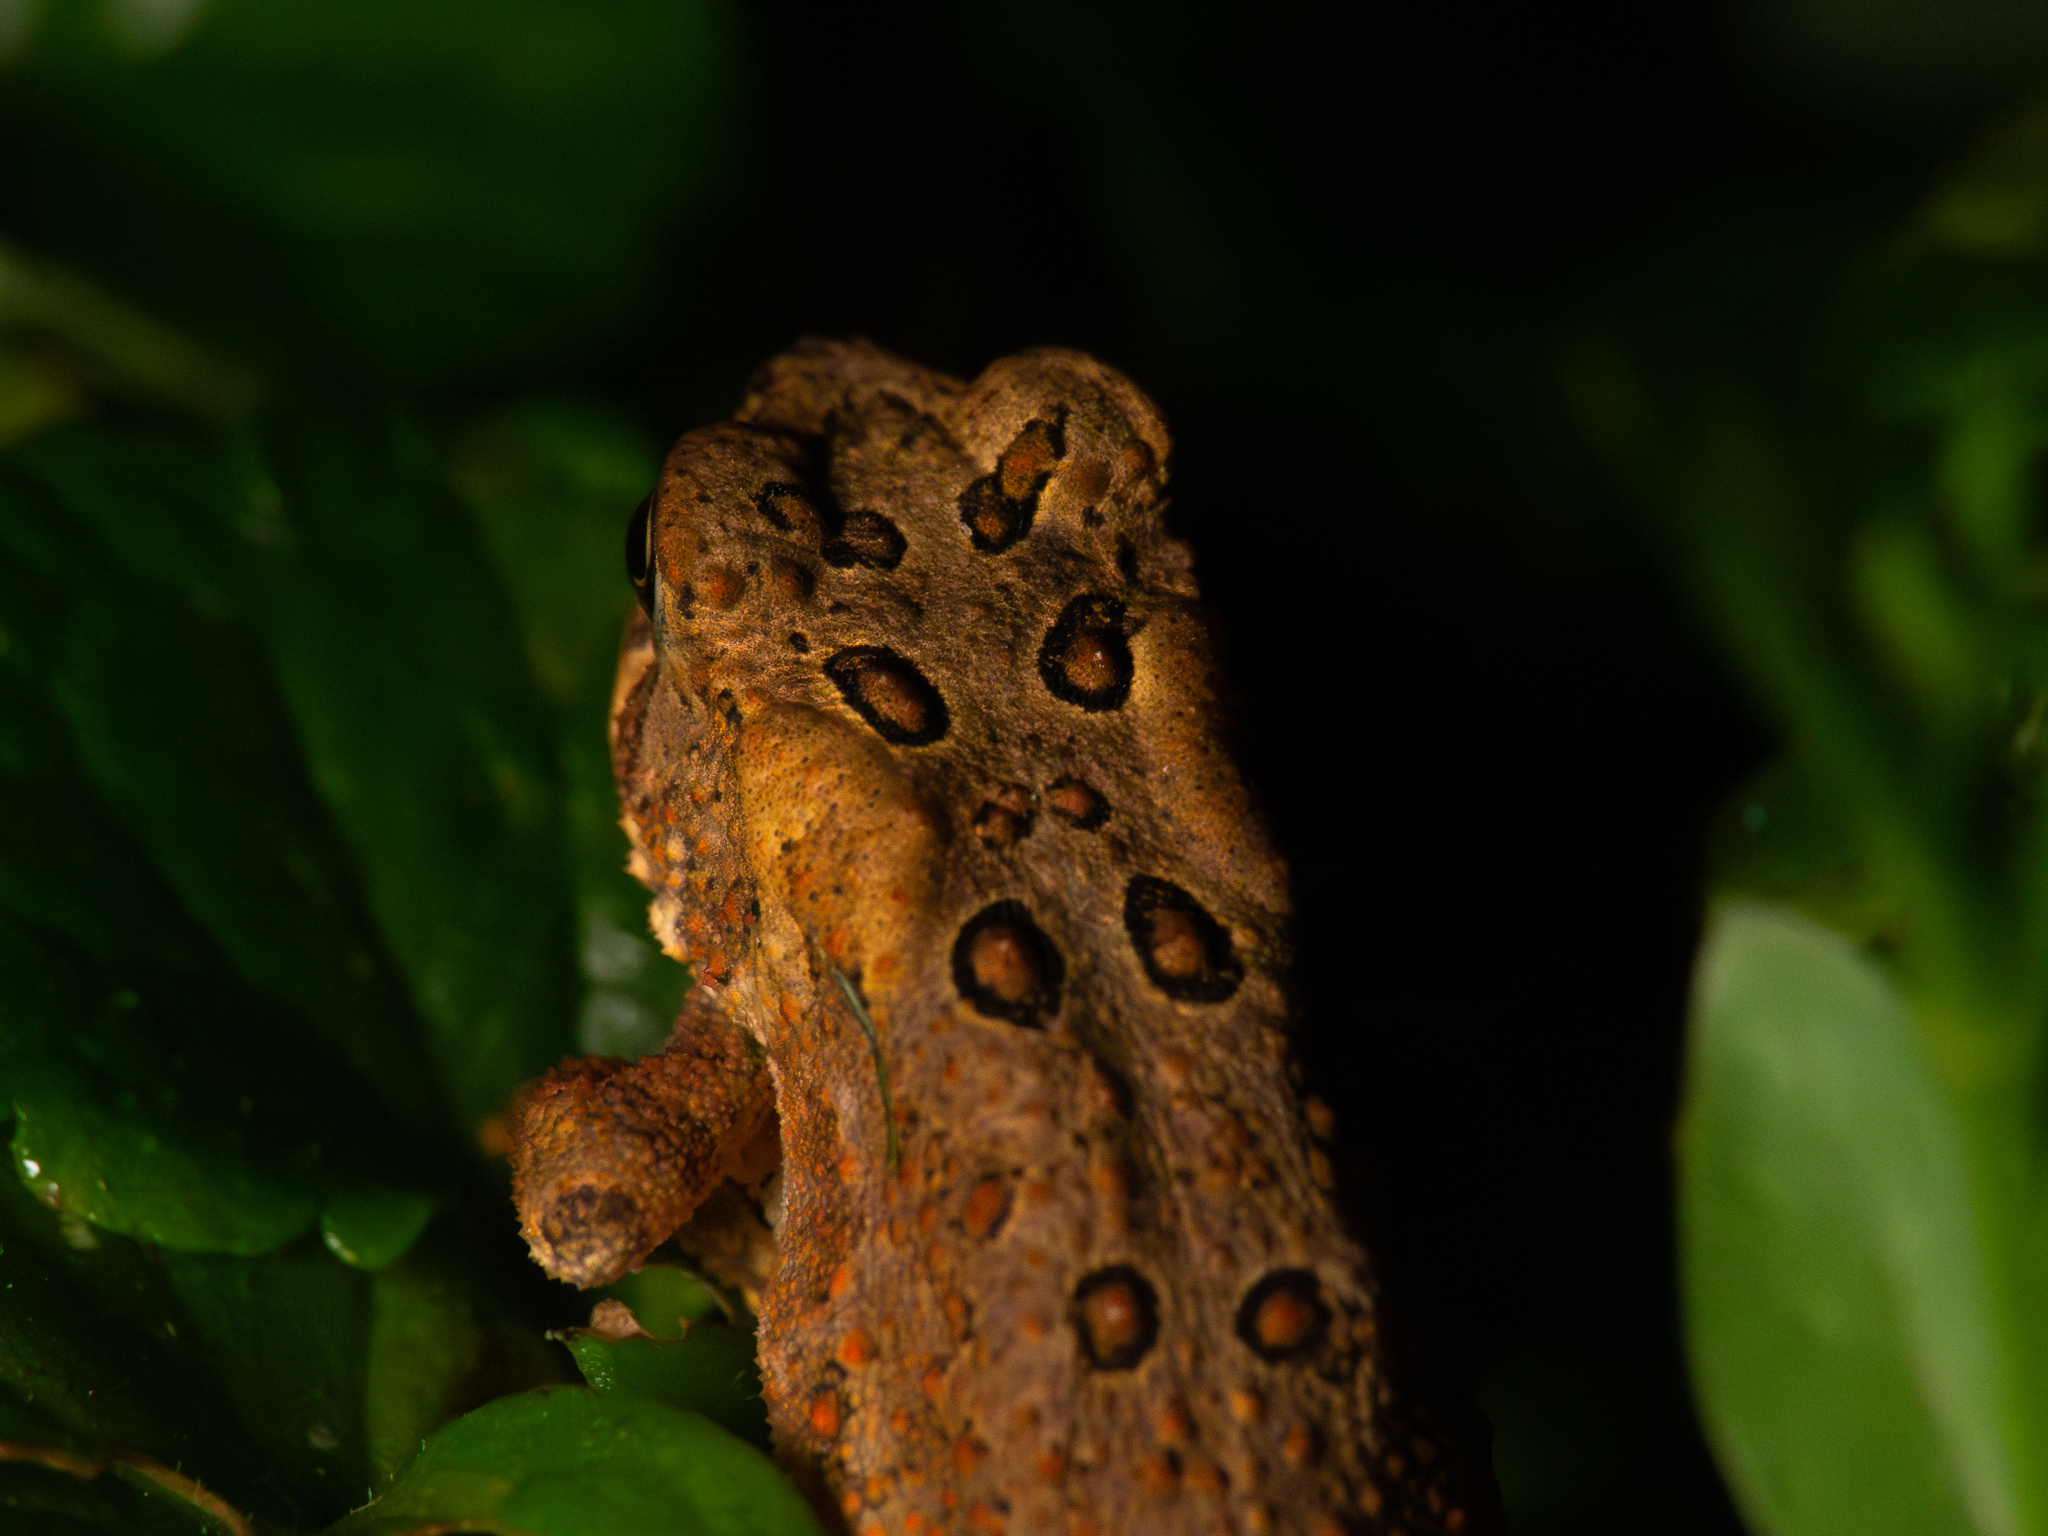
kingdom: Animalia
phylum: Chordata
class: Amphibia
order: Anura
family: Bufonidae
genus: Anaxyrus
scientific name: Anaxyrus americanus
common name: American toad
